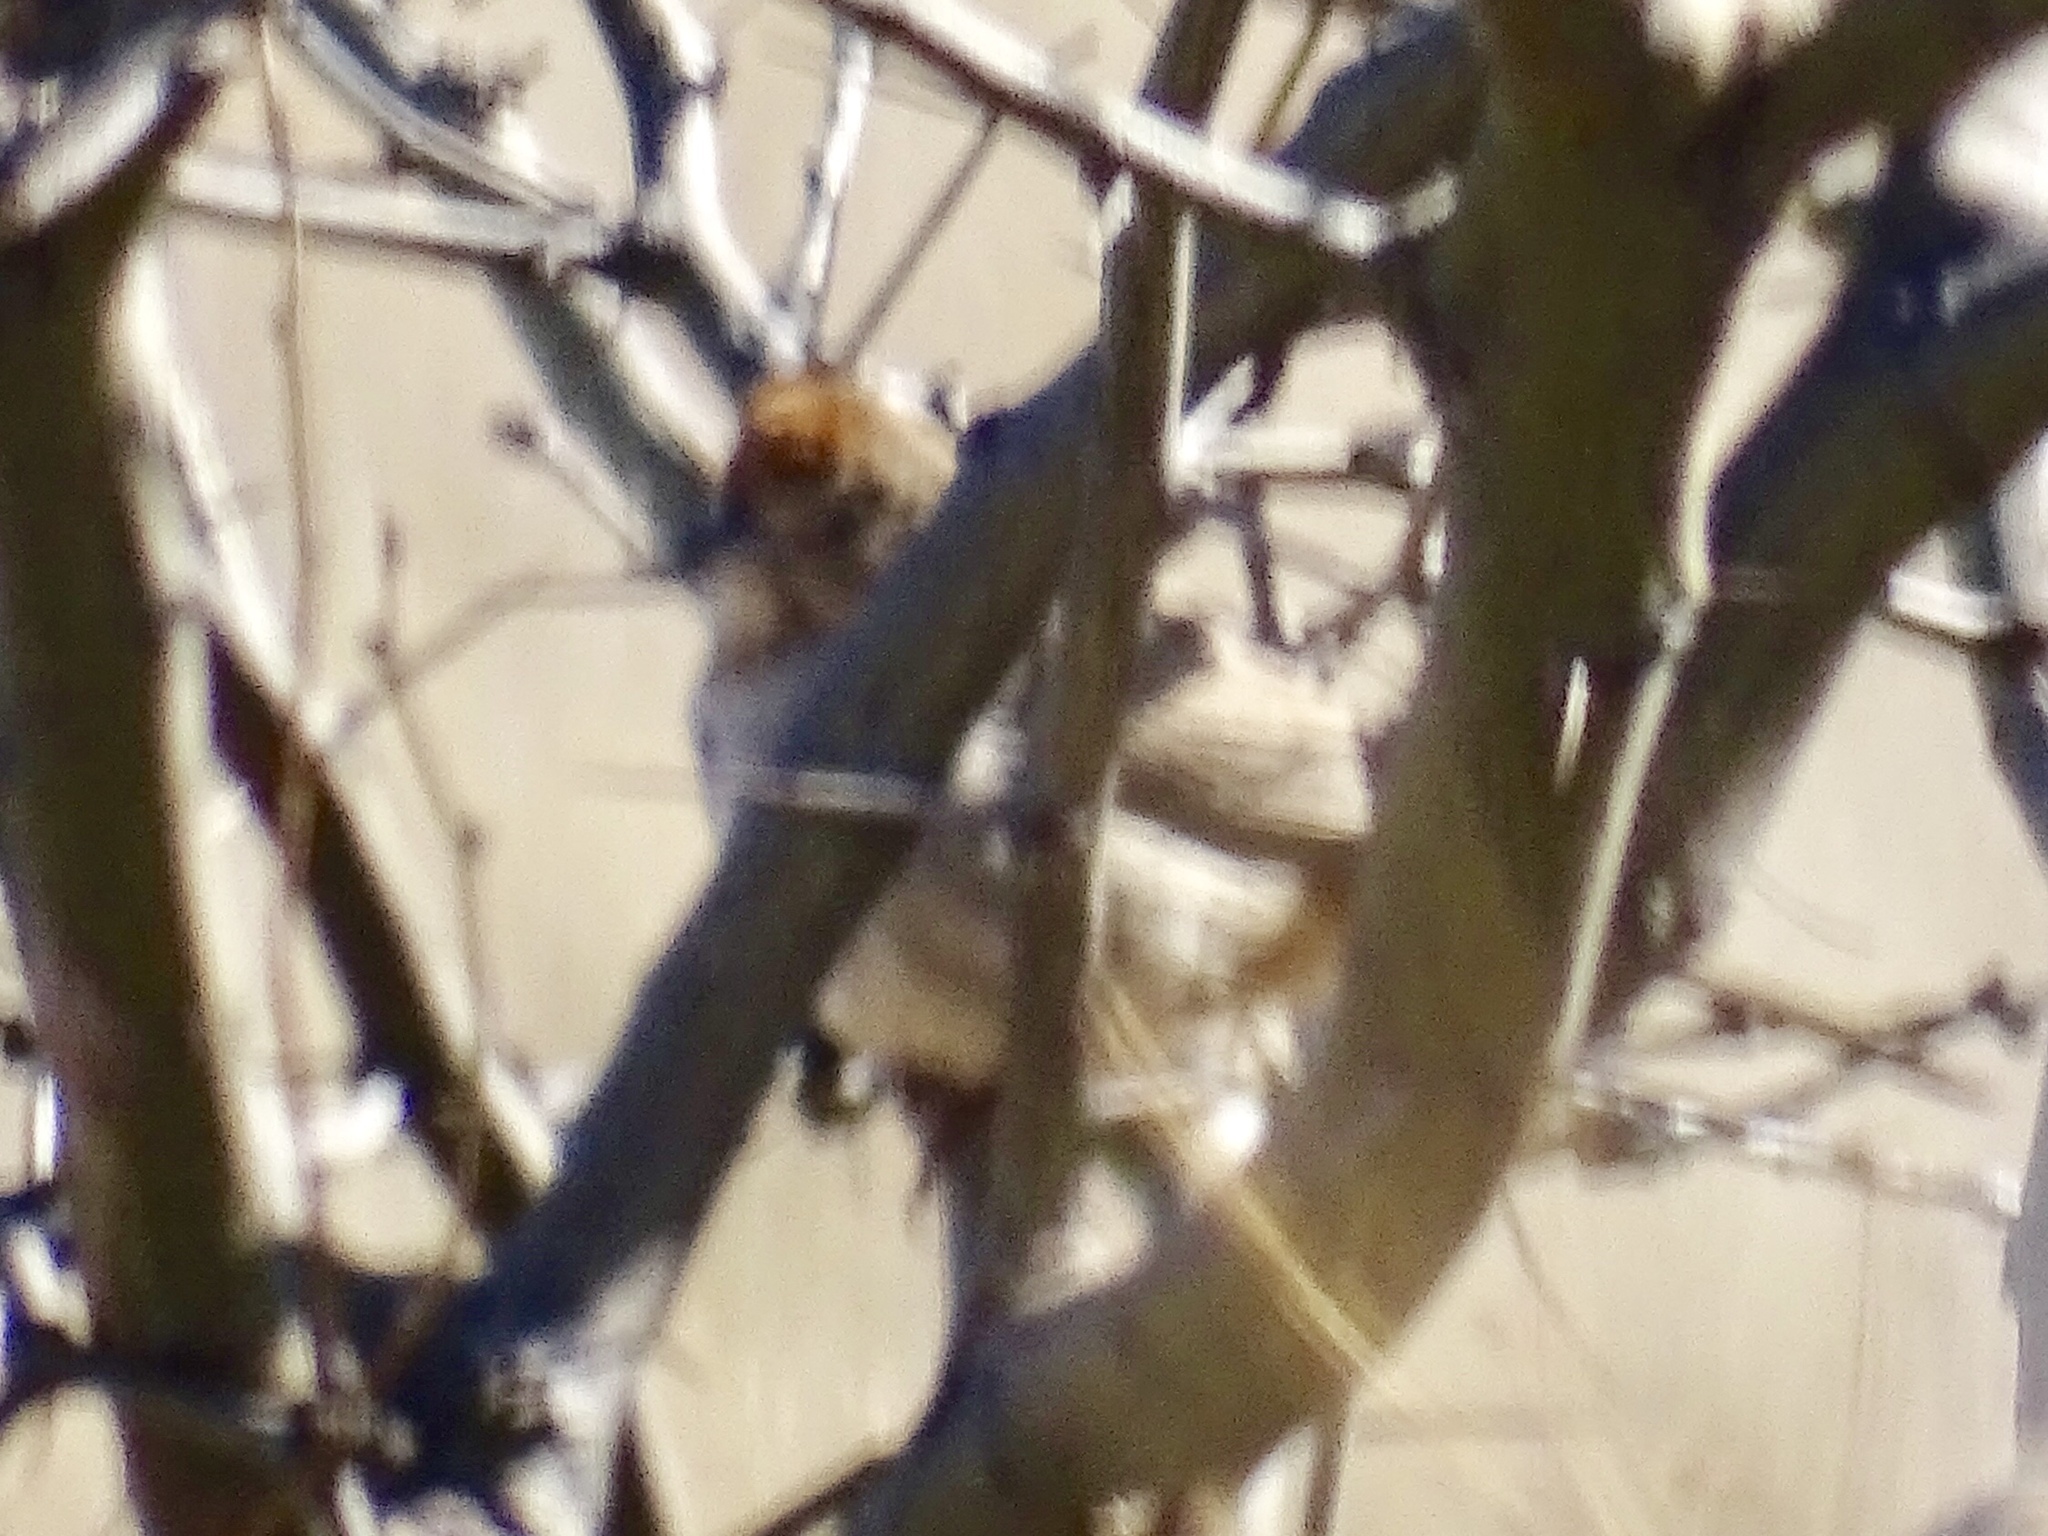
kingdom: Animalia
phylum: Chordata
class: Aves
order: Passeriformes
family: Passerellidae
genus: Melozone
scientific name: Melozone fusca
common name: Canyon towhee
